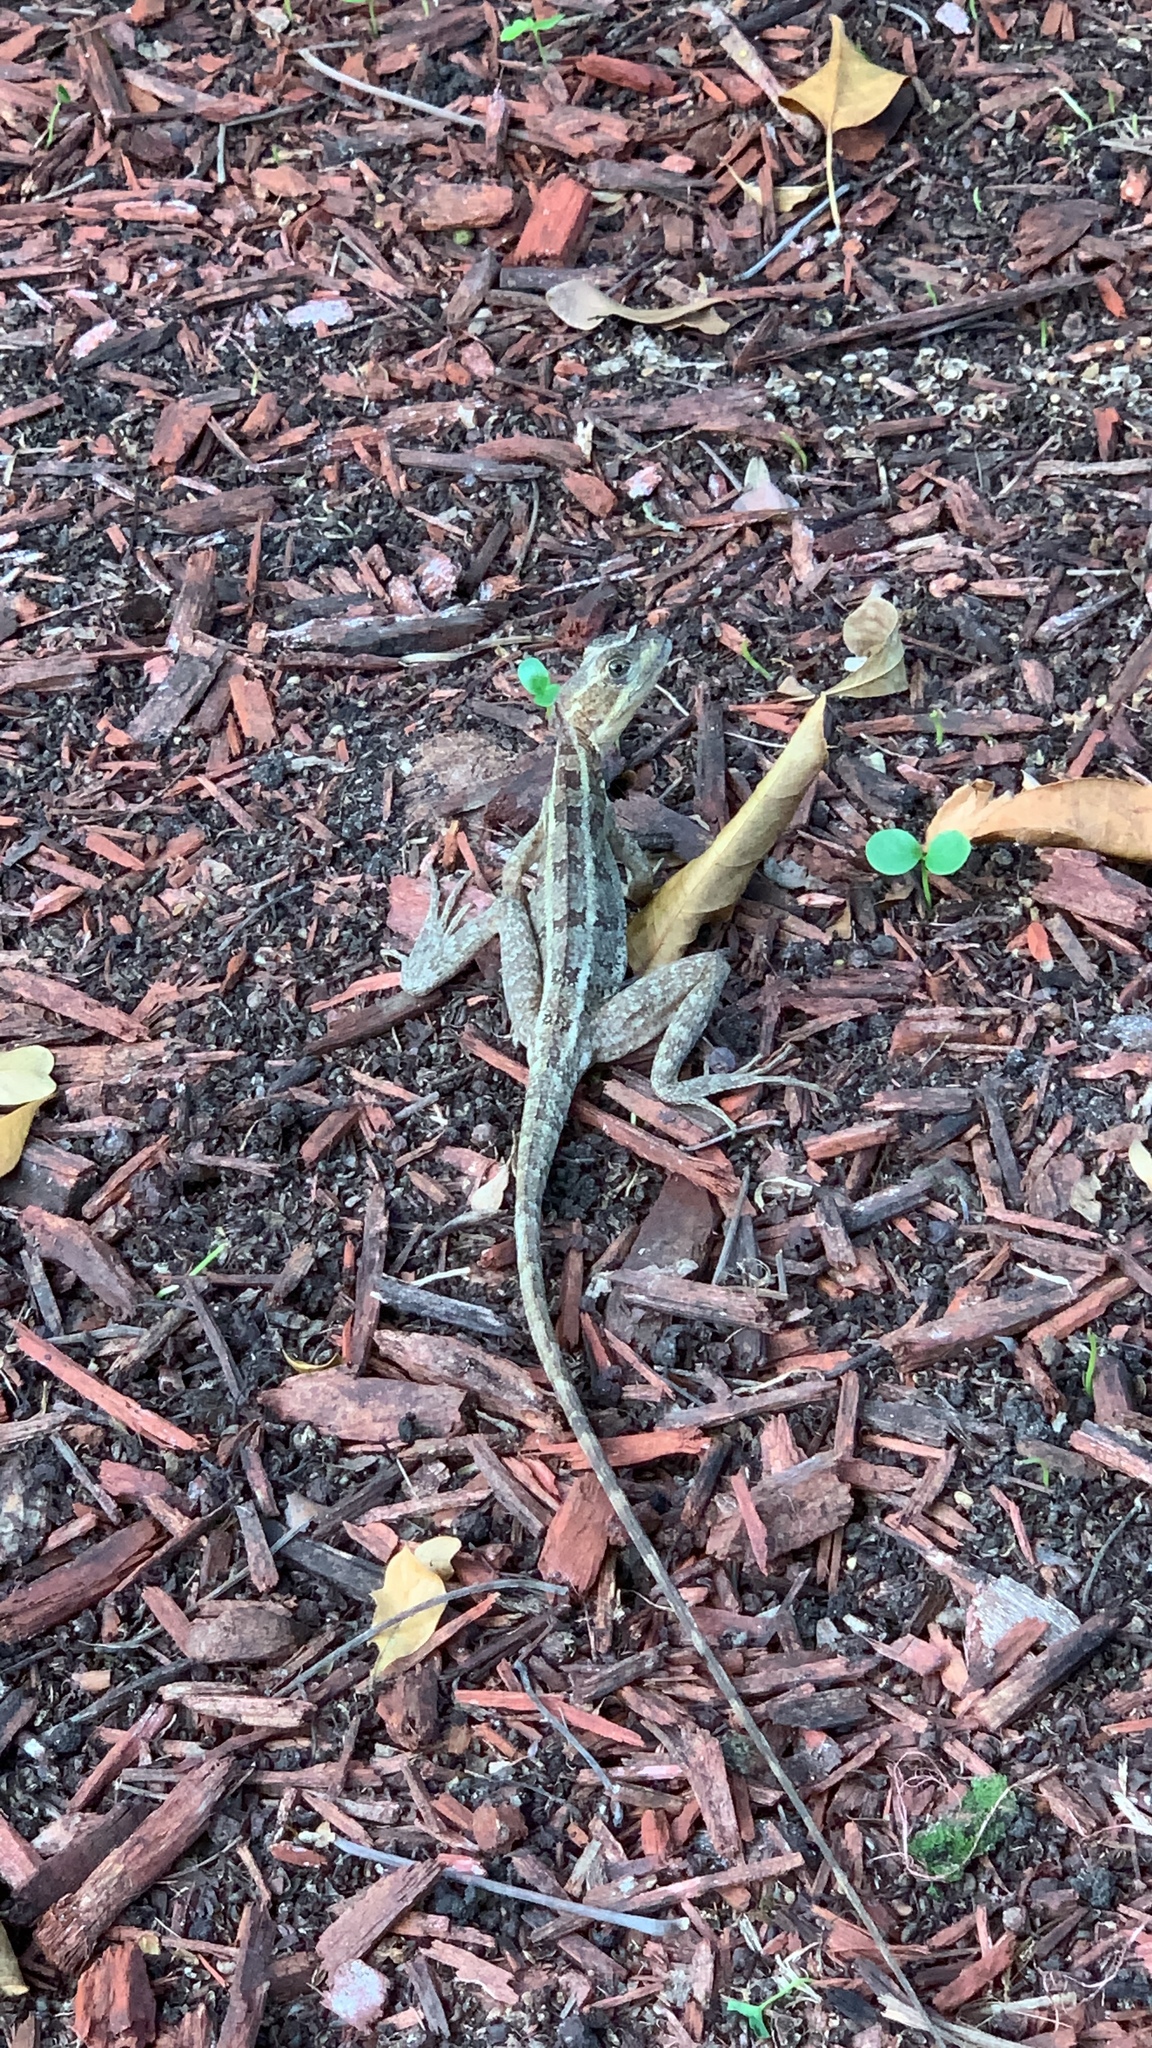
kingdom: Animalia
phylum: Chordata
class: Squamata
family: Corytophanidae
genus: Basiliscus
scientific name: Basiliscus vittatus
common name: Brown basilisk
